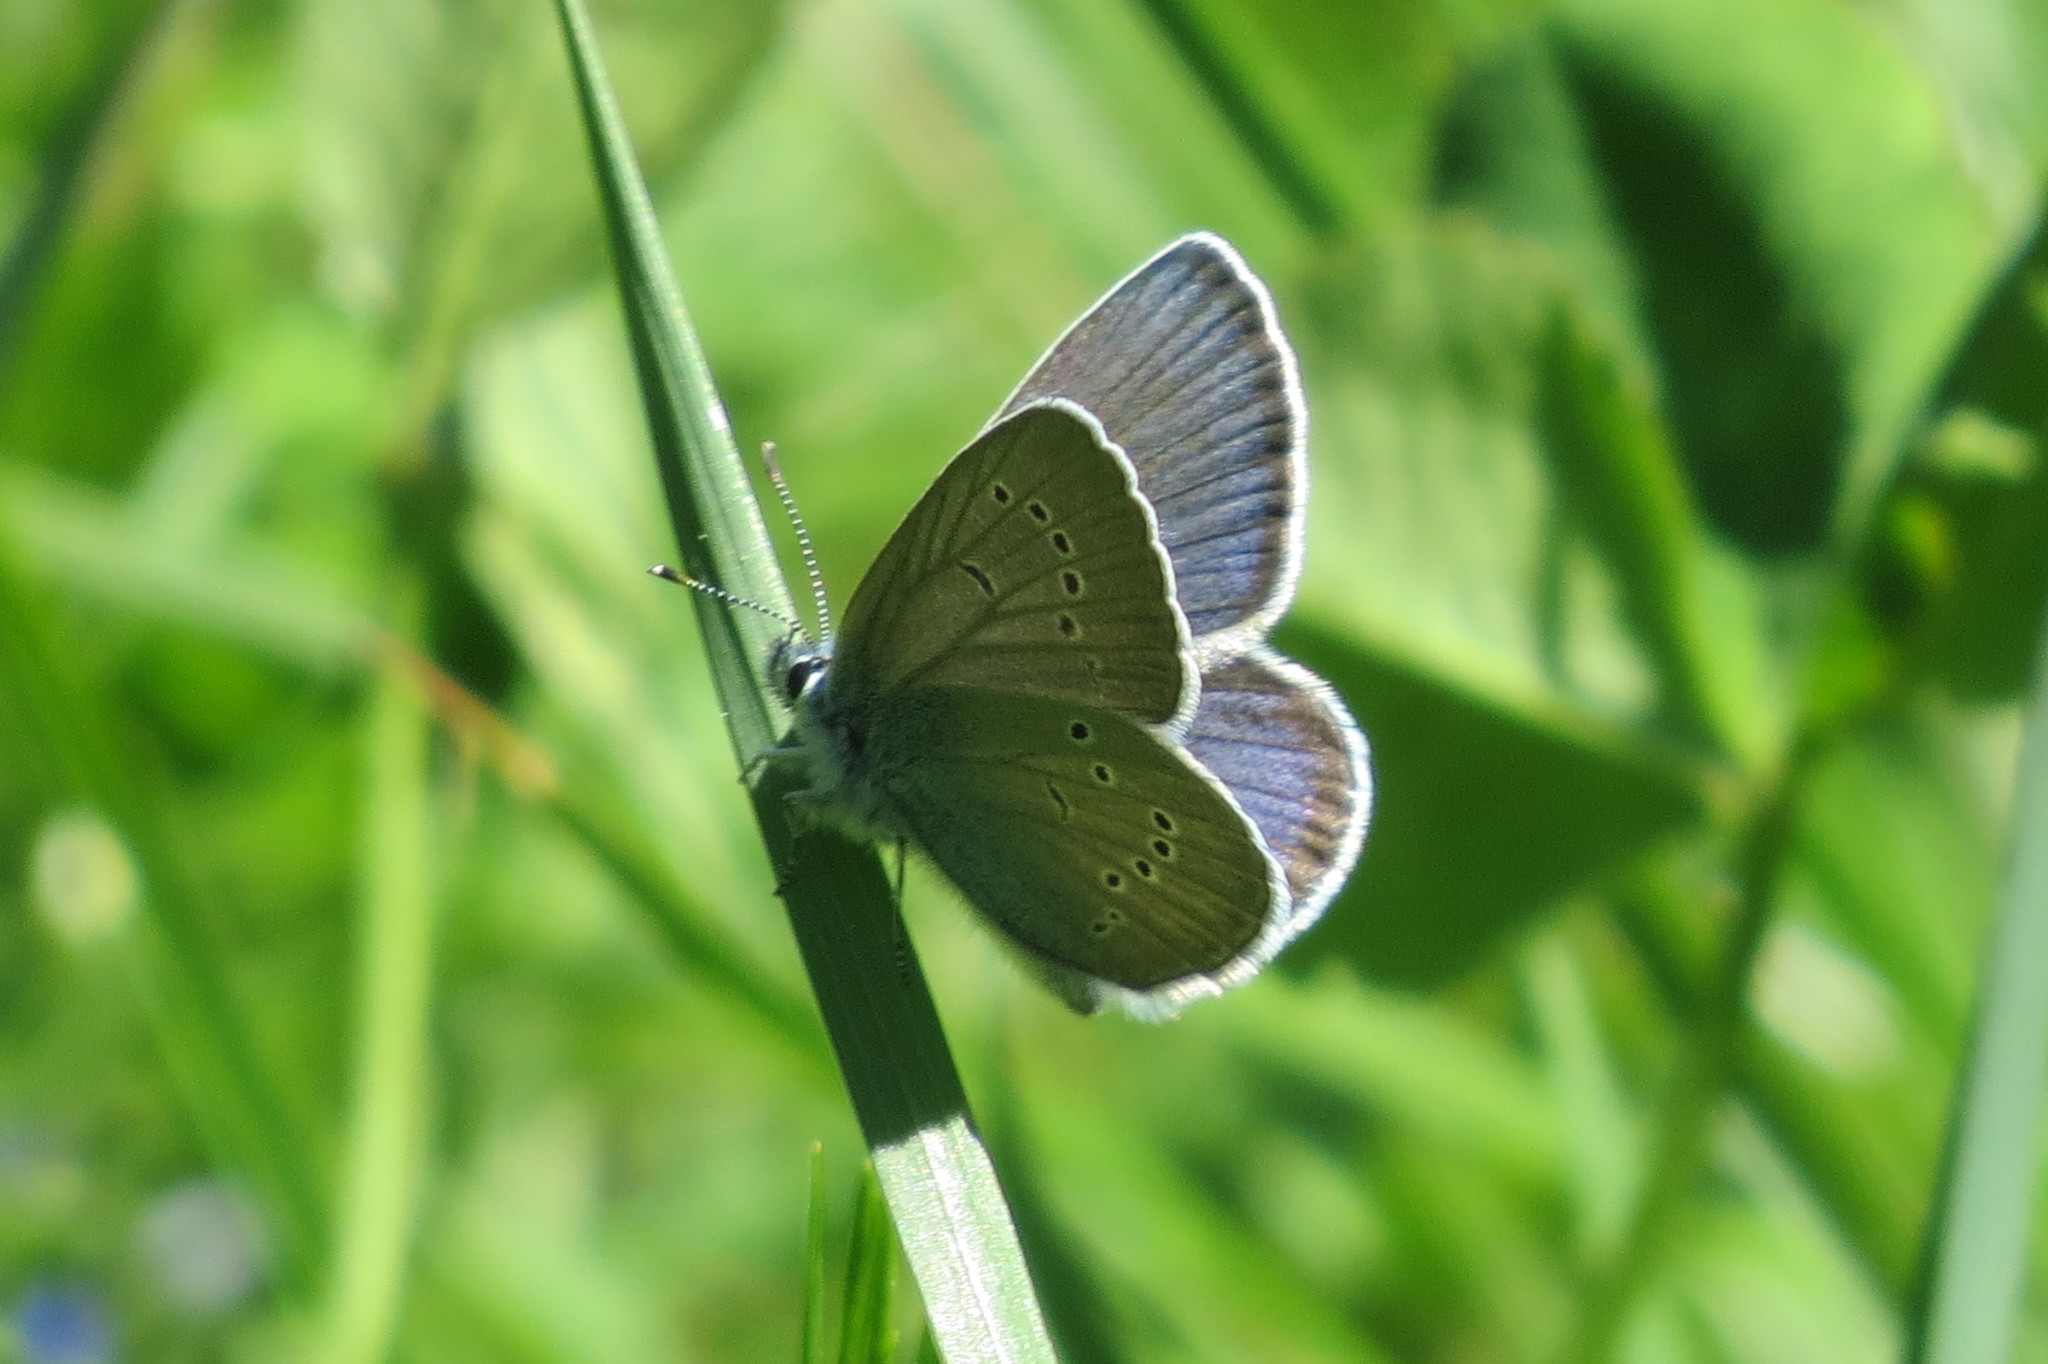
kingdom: Animalia
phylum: Arthropoda
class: Insecta
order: Lepidoptera
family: Lycaenidae
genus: Cyaniris
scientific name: Cyaniris semiargus
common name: Mazarine blue
